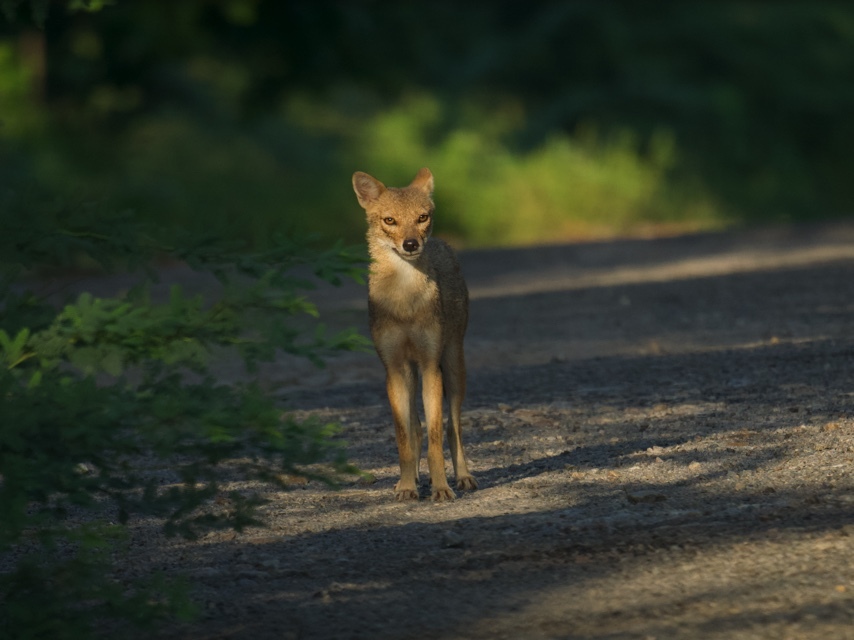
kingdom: Animalia
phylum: Chordata
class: Mammalia
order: Carnivora
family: Canidae
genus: Canis
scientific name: Canis aureus
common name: Golden jackal
